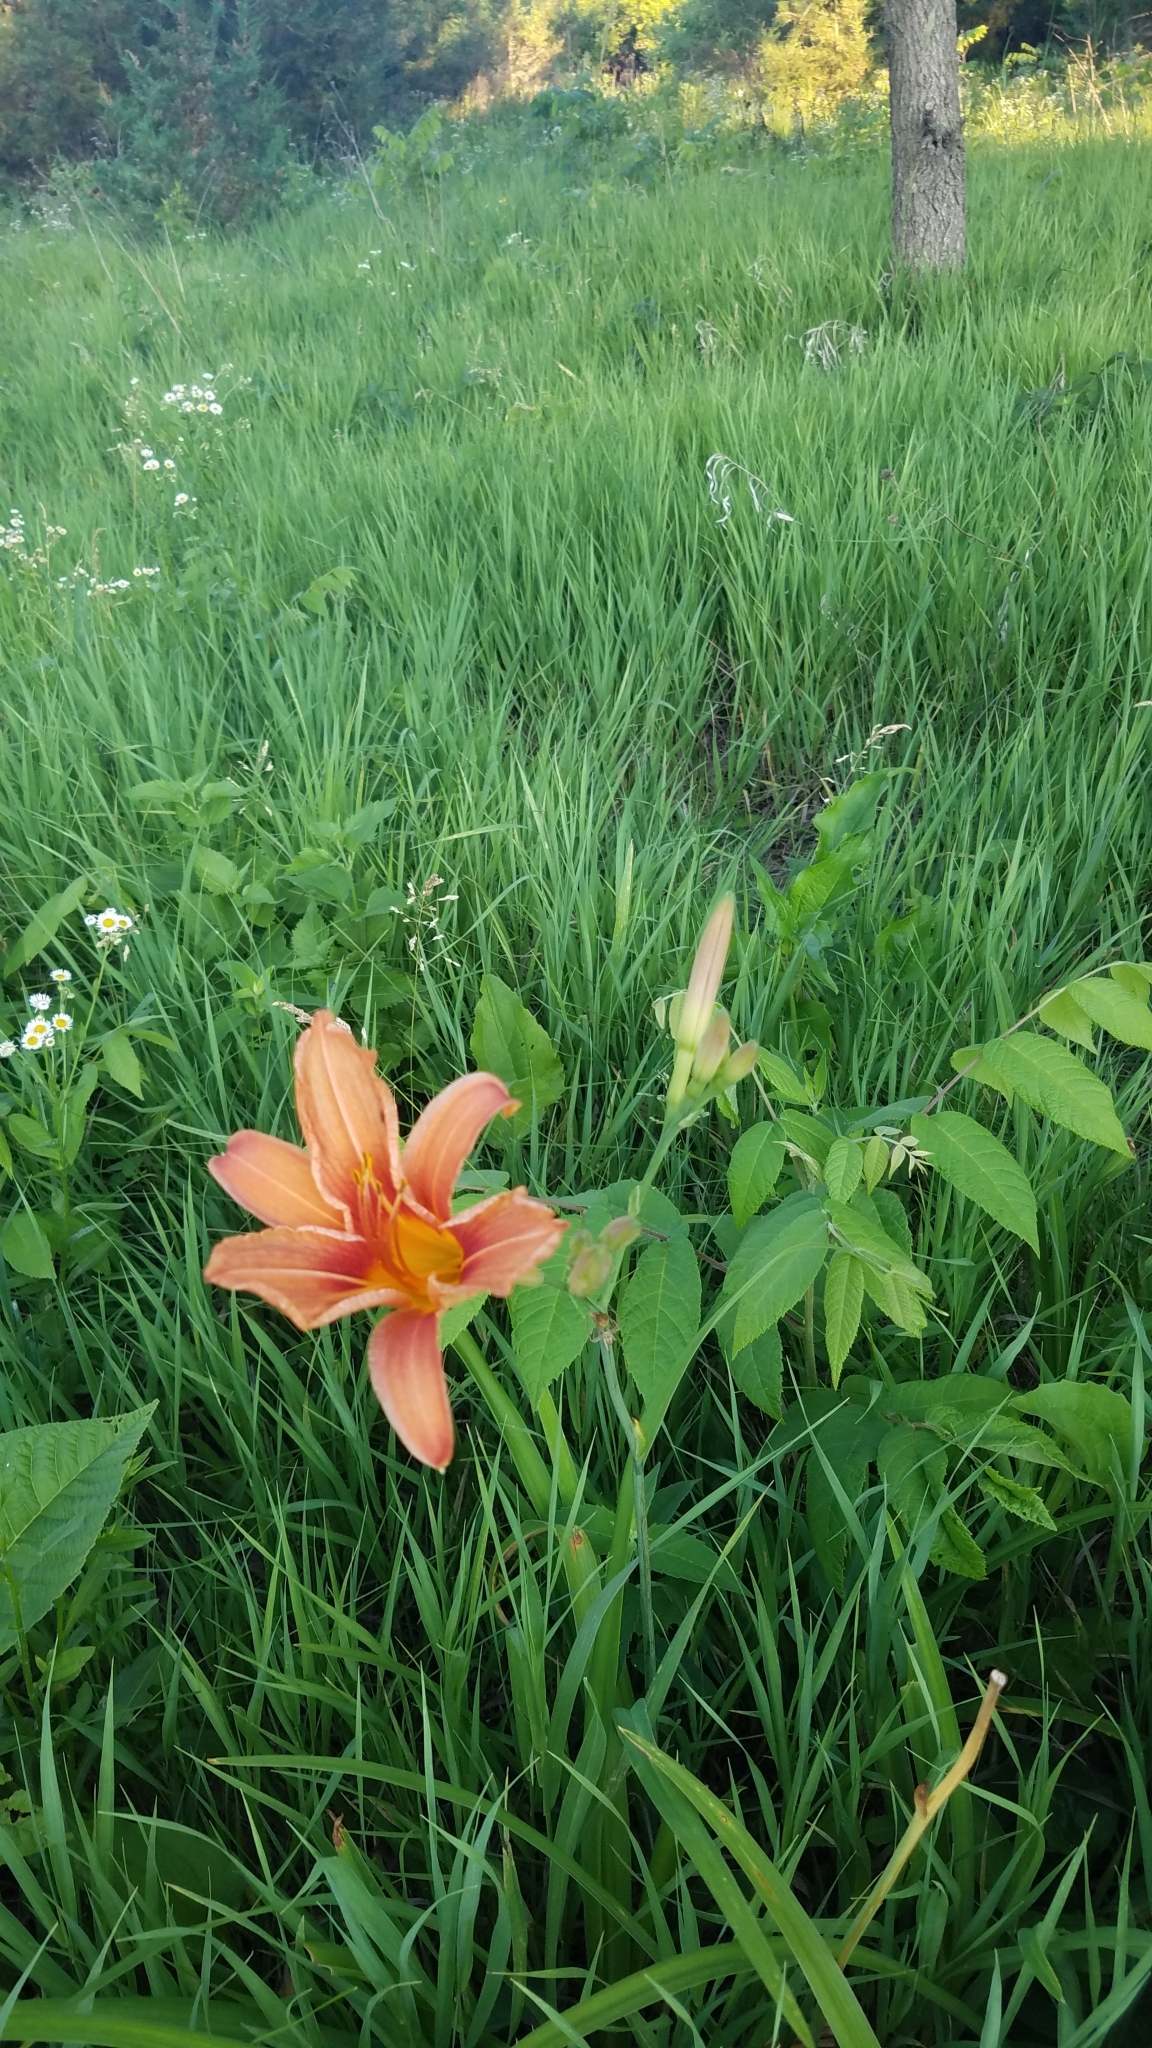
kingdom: Plantae
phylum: Tracheophyta
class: Liliopsida
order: Asparagales
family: Asphodelaceae
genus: Hemerocallis
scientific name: Hemerocallis fulva
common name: Orange day-lily
